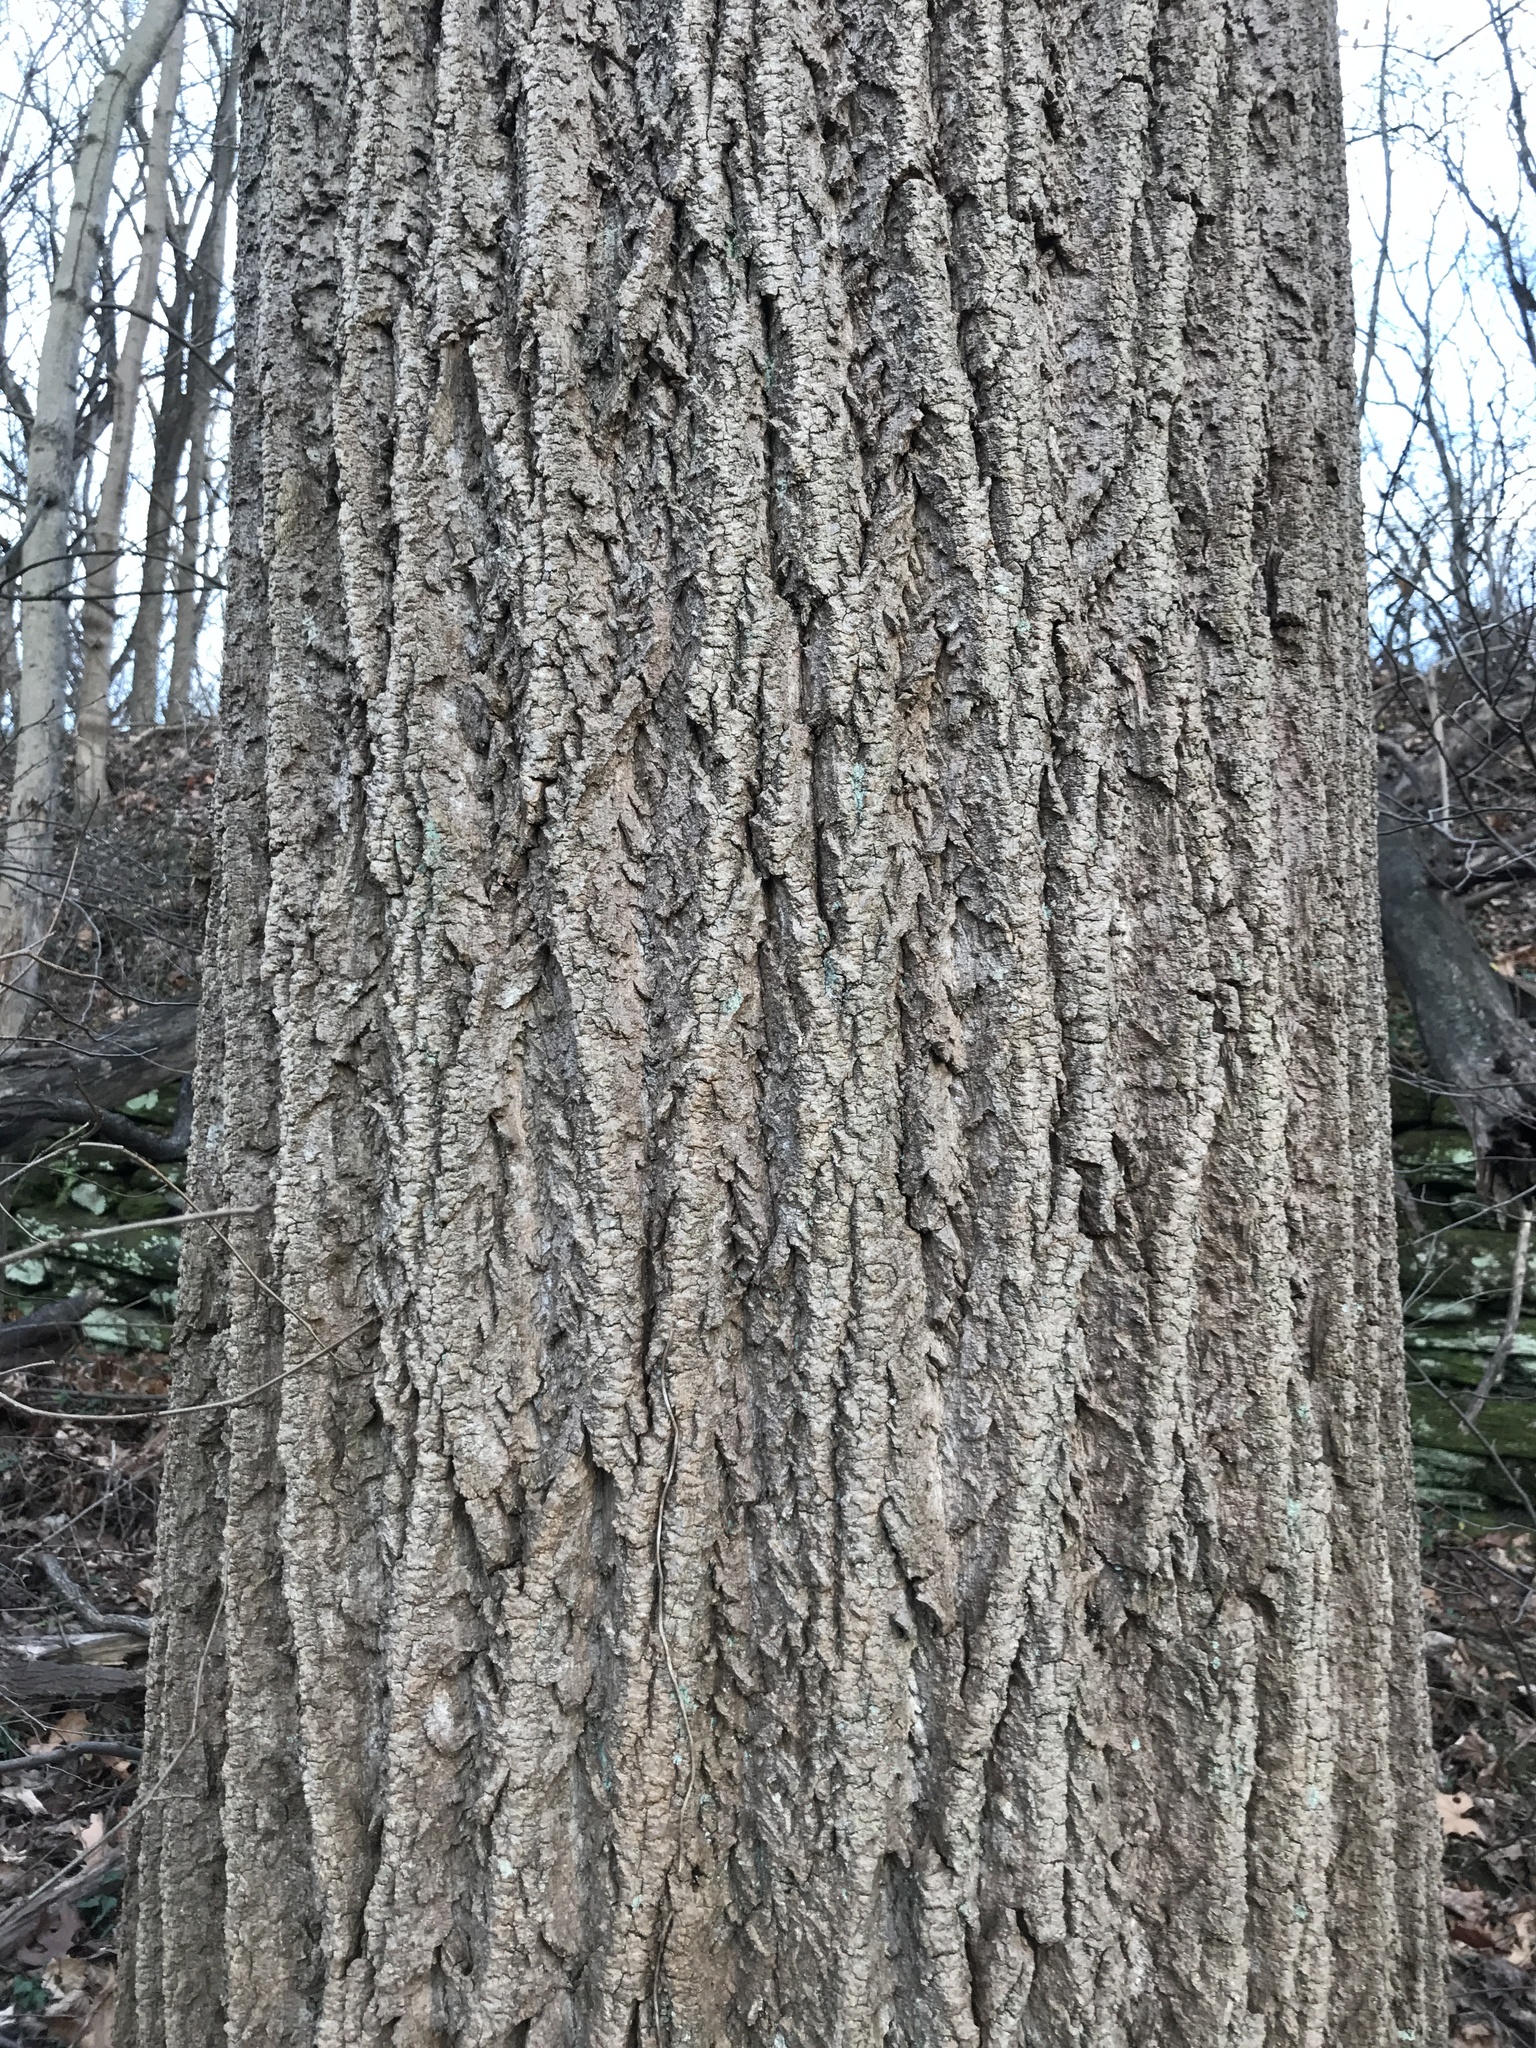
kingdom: Plantae
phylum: Tracheophyta
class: Magnoliopsida
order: Magnoliales
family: Magnoliaceae
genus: Liriodendron
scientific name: Liriodendron tulipifera
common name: Tulip tree
